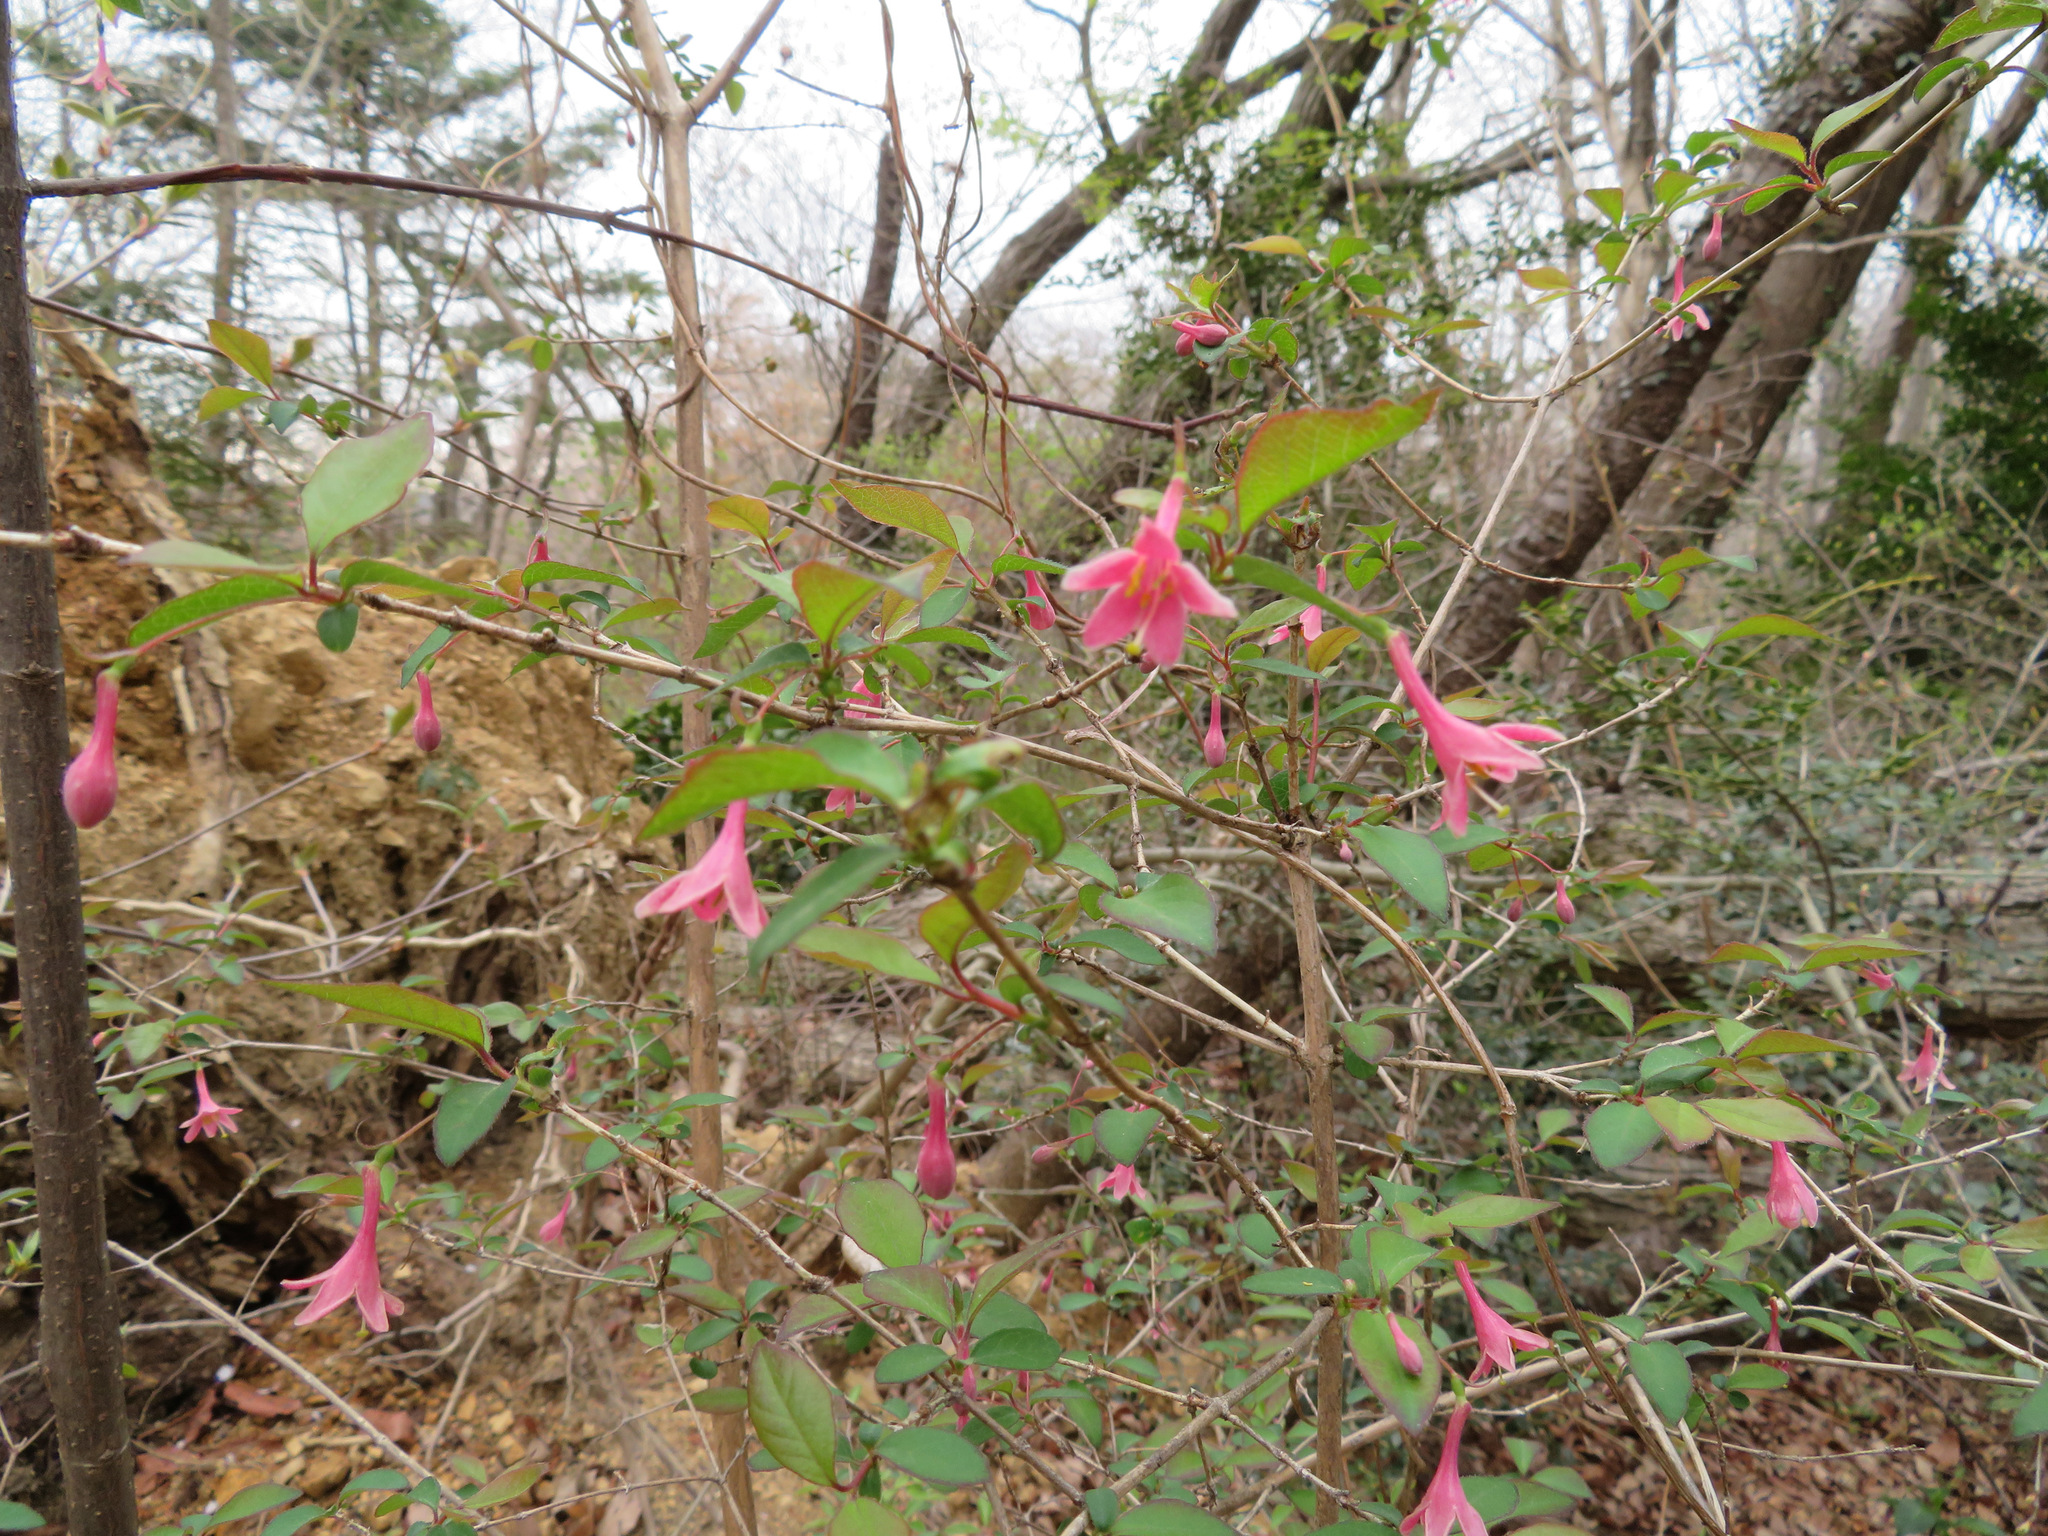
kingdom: Plantae
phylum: Tracheophyta
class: Magnoliopsida
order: Dipsacales
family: Caprifoliaceae
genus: Lonicera
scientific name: Lonicera gracilipes
